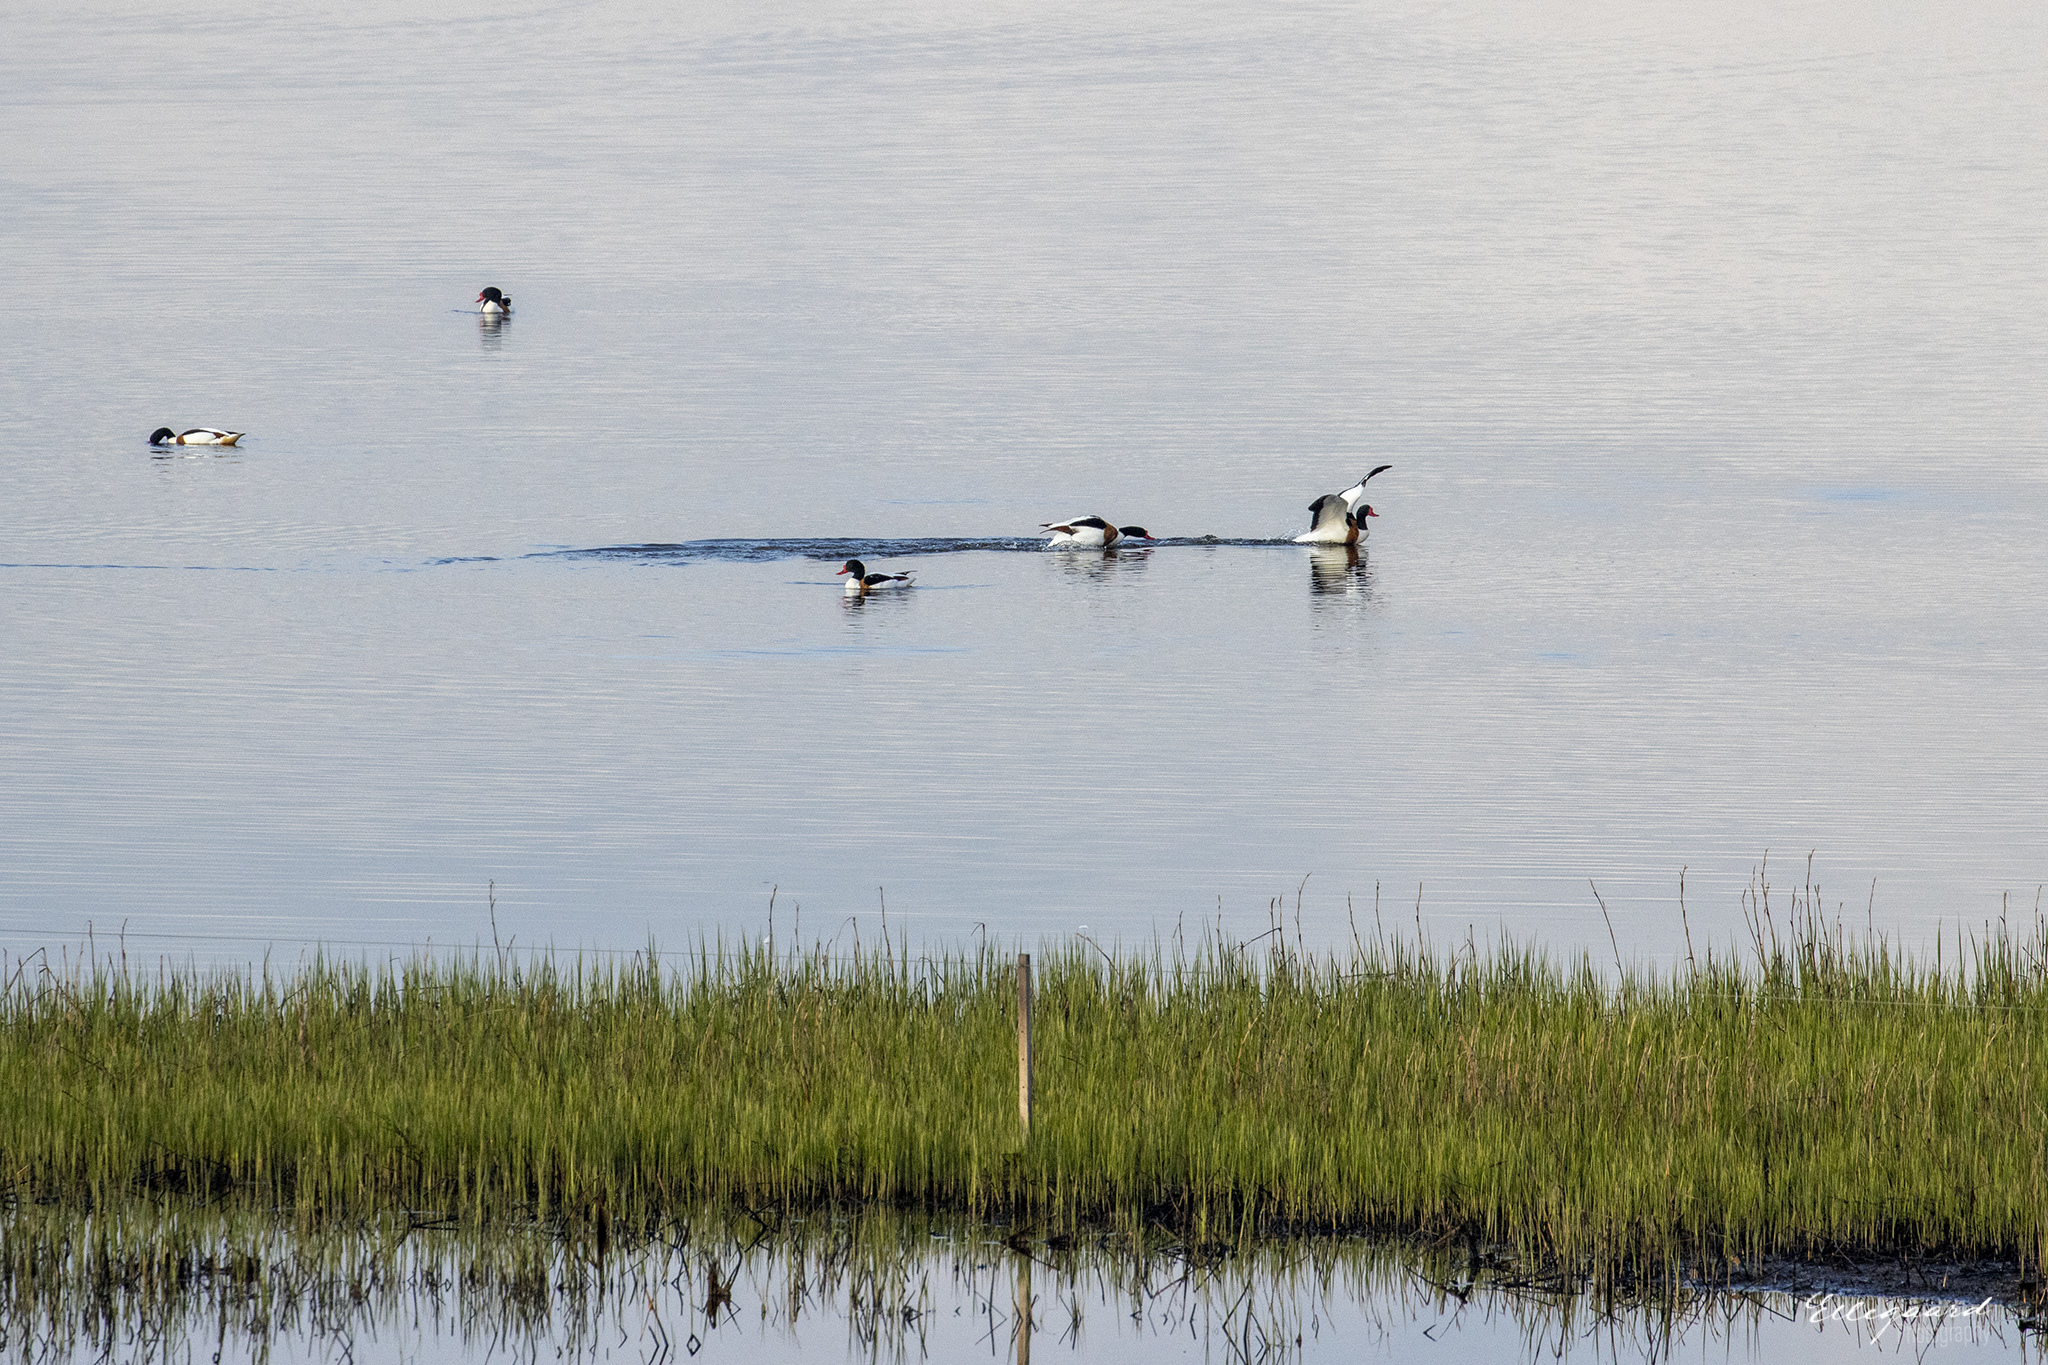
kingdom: Animalia
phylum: Chordata
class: Aves
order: Anseriformes
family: Anatidae
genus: Tadorna
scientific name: Tadorna tadorna
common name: Common shelduck
